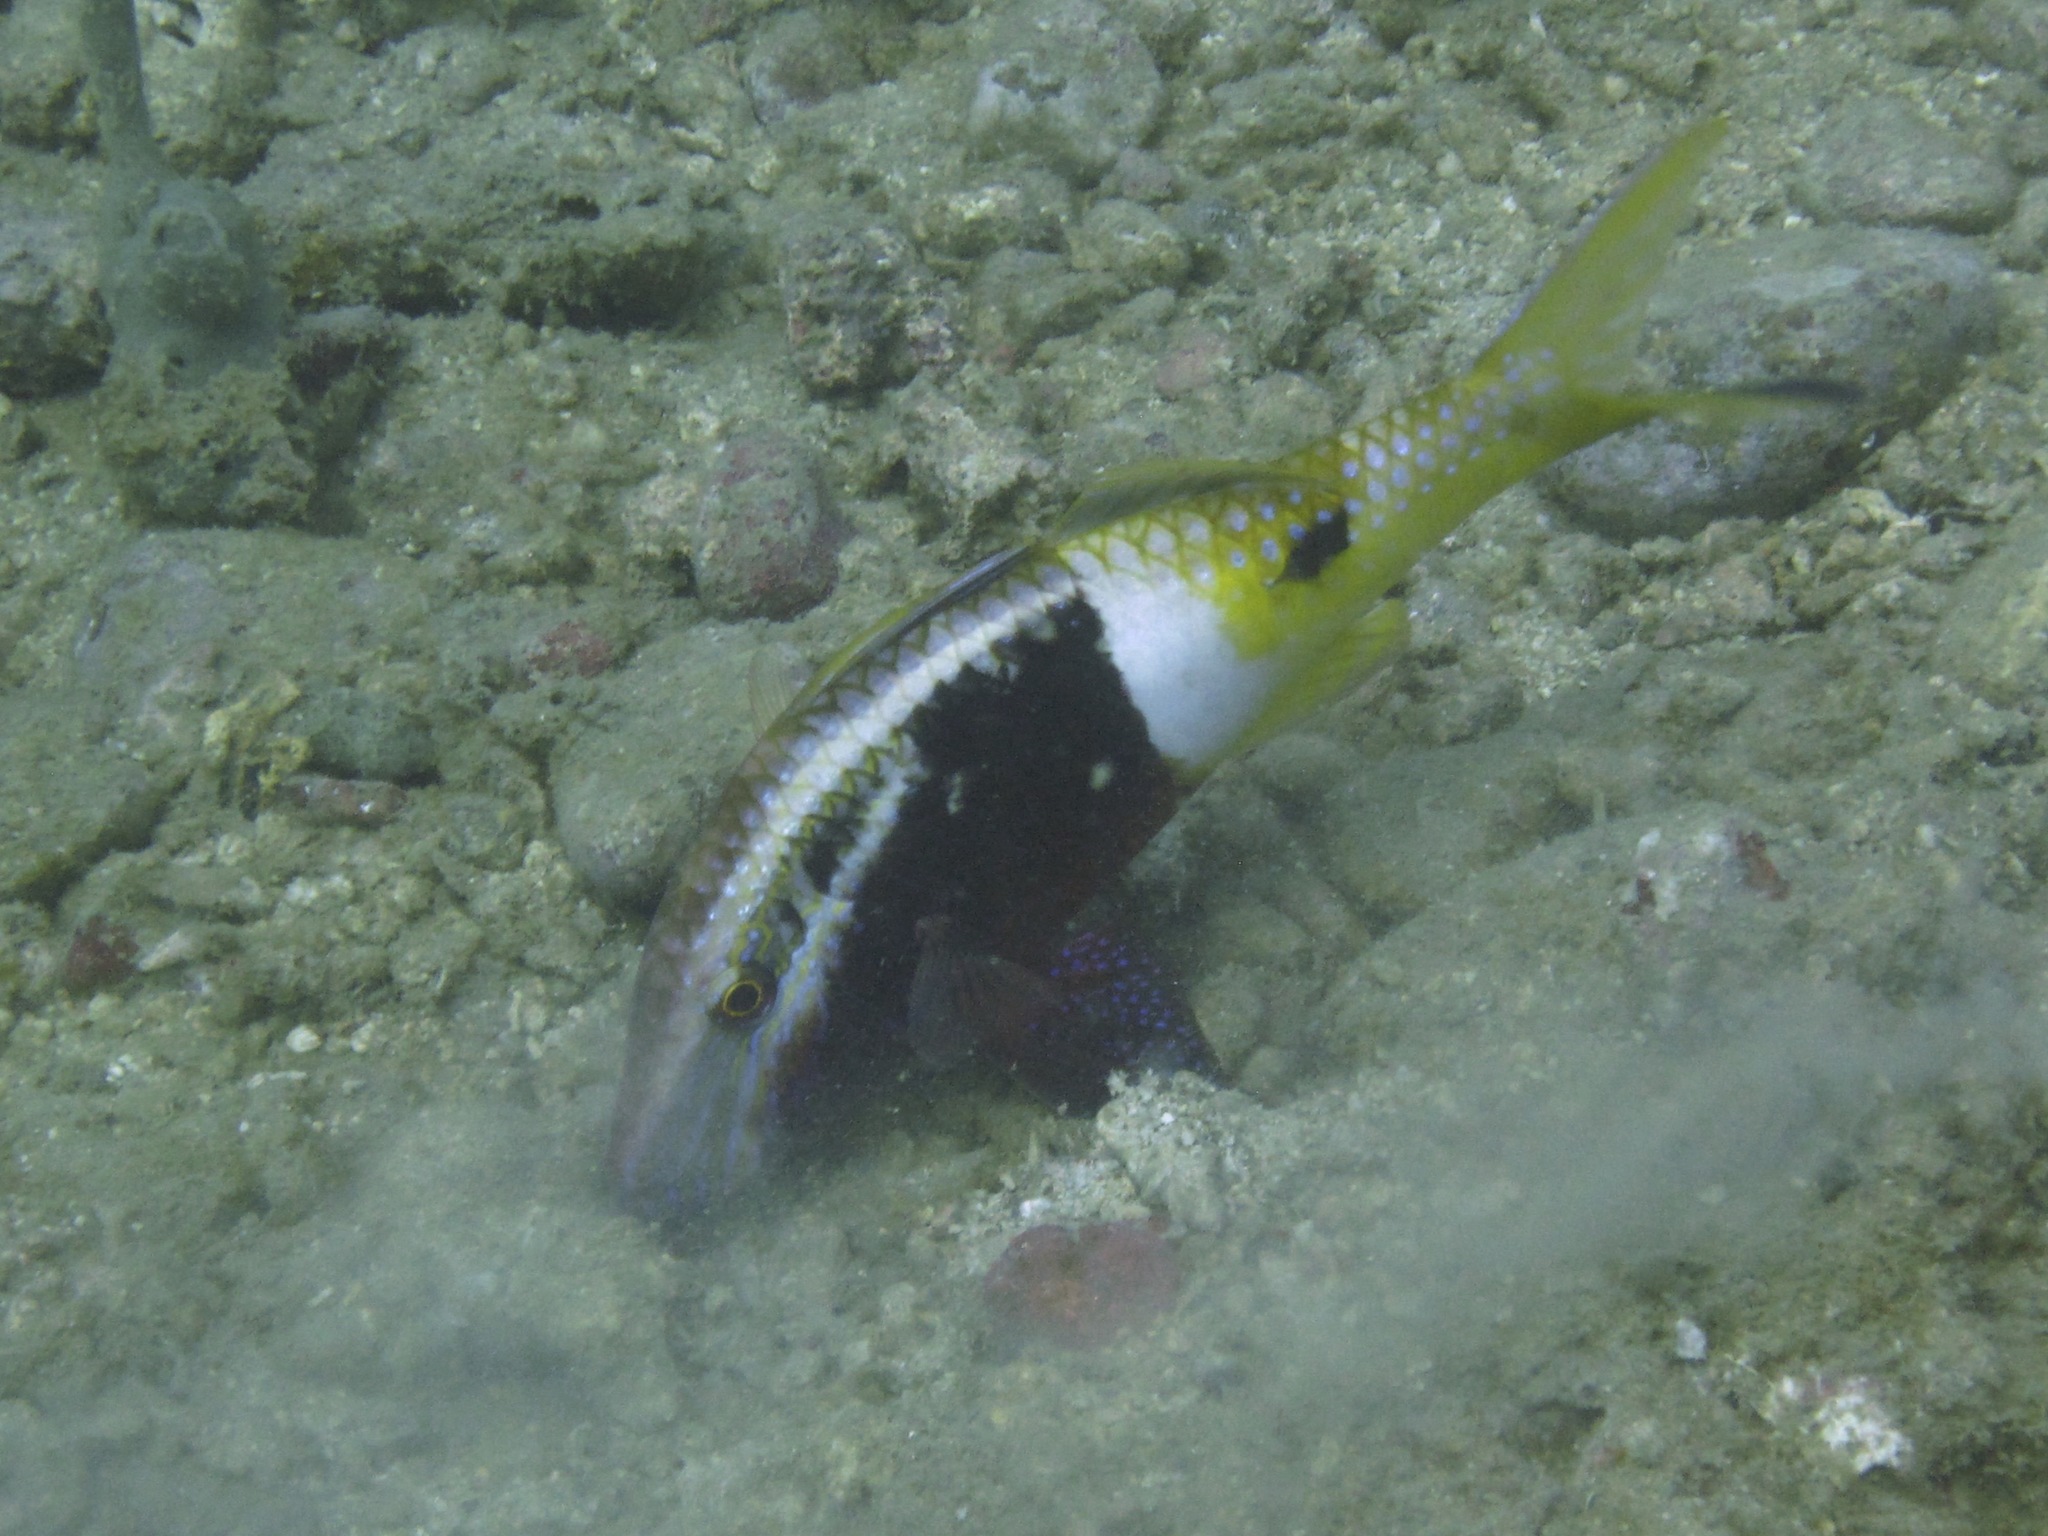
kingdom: Animalia
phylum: Chordata
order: Perciformes
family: Mullidae
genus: Parupeneus
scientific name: Parupeneus barberinoides
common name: Half-and-half goatfish
